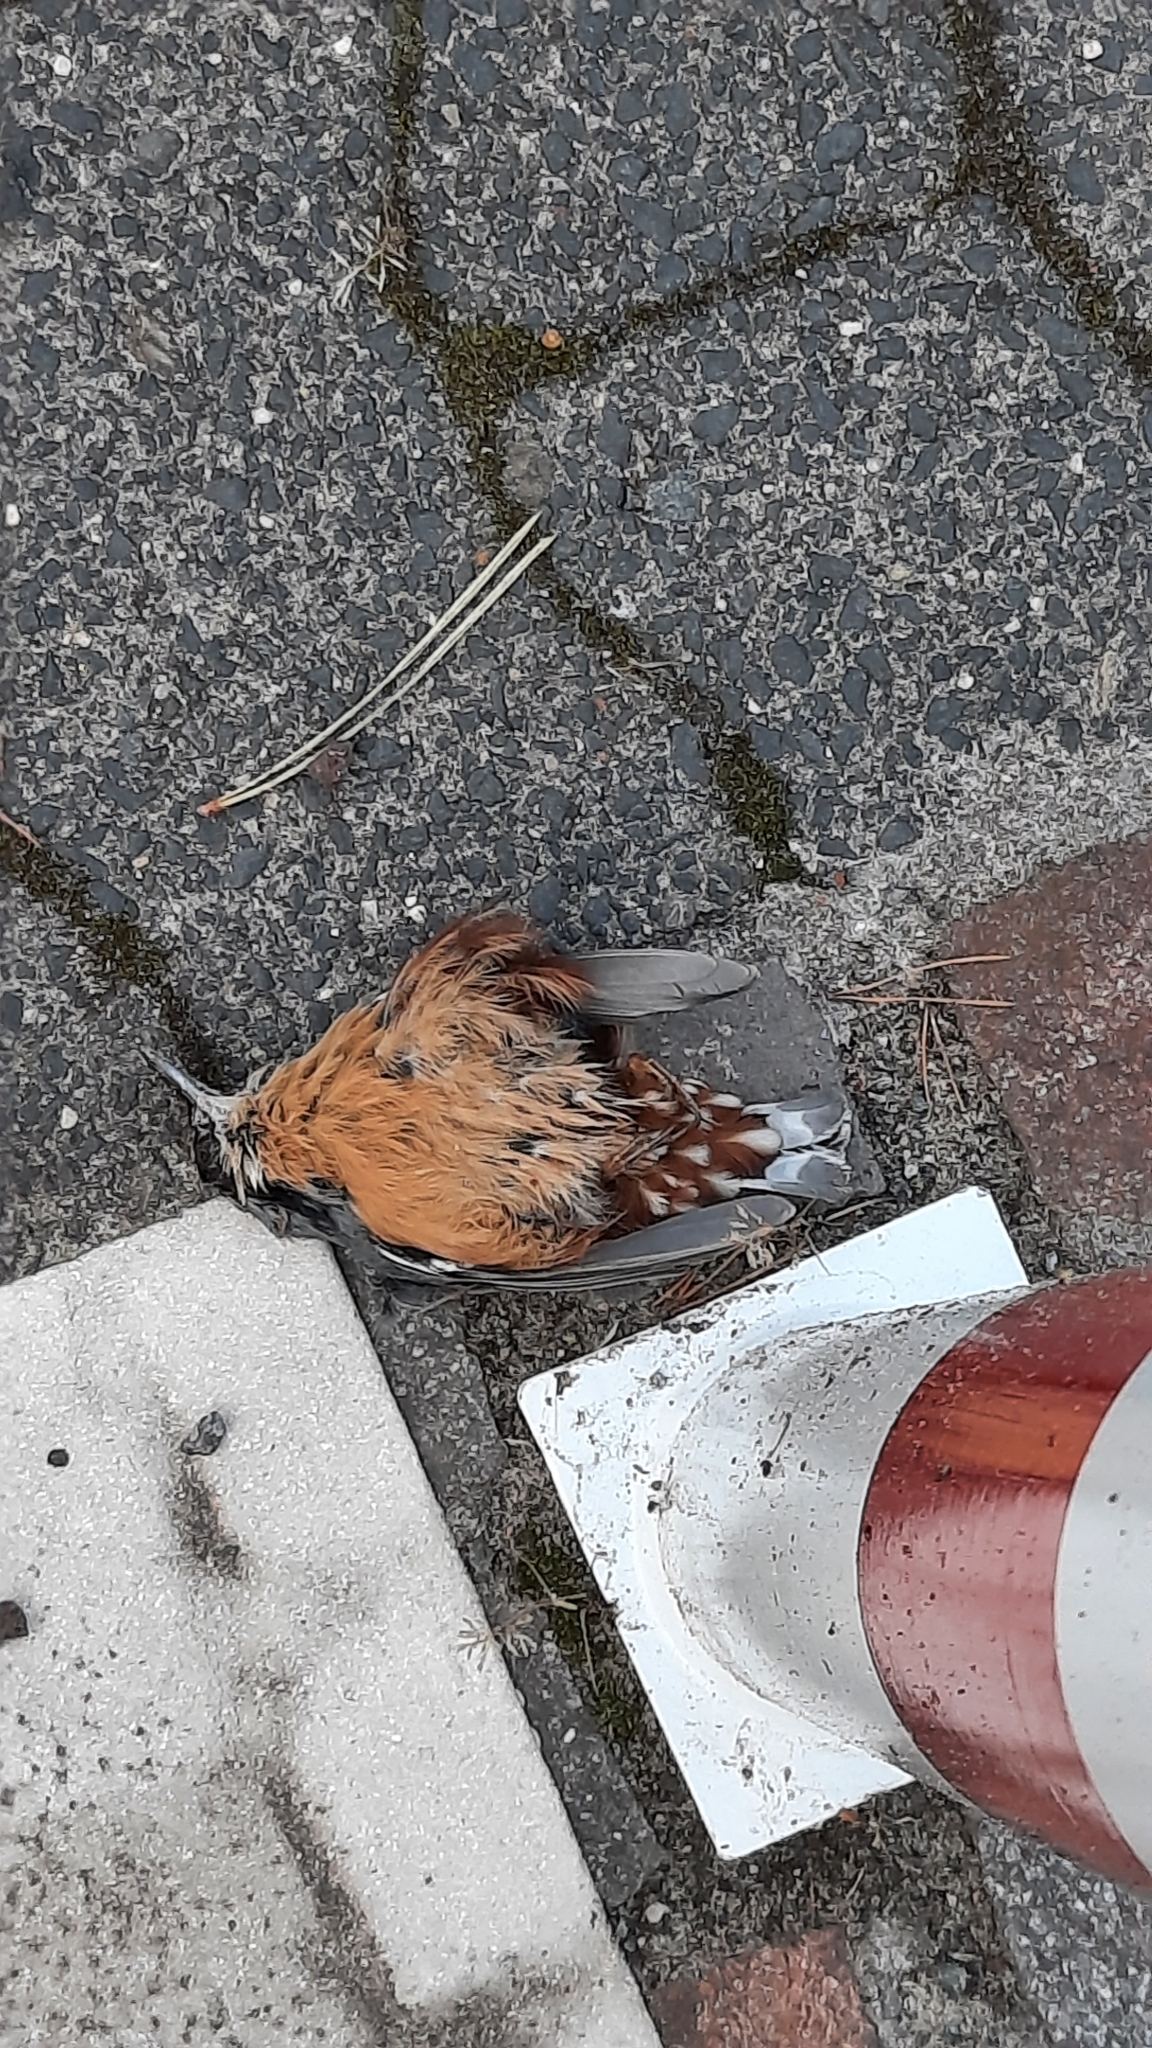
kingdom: Animalia
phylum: Chordata
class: Aves
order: Passeriformes
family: Sittidae
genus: Sitta
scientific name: Sitta europaea
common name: Eurasian nuthatch
